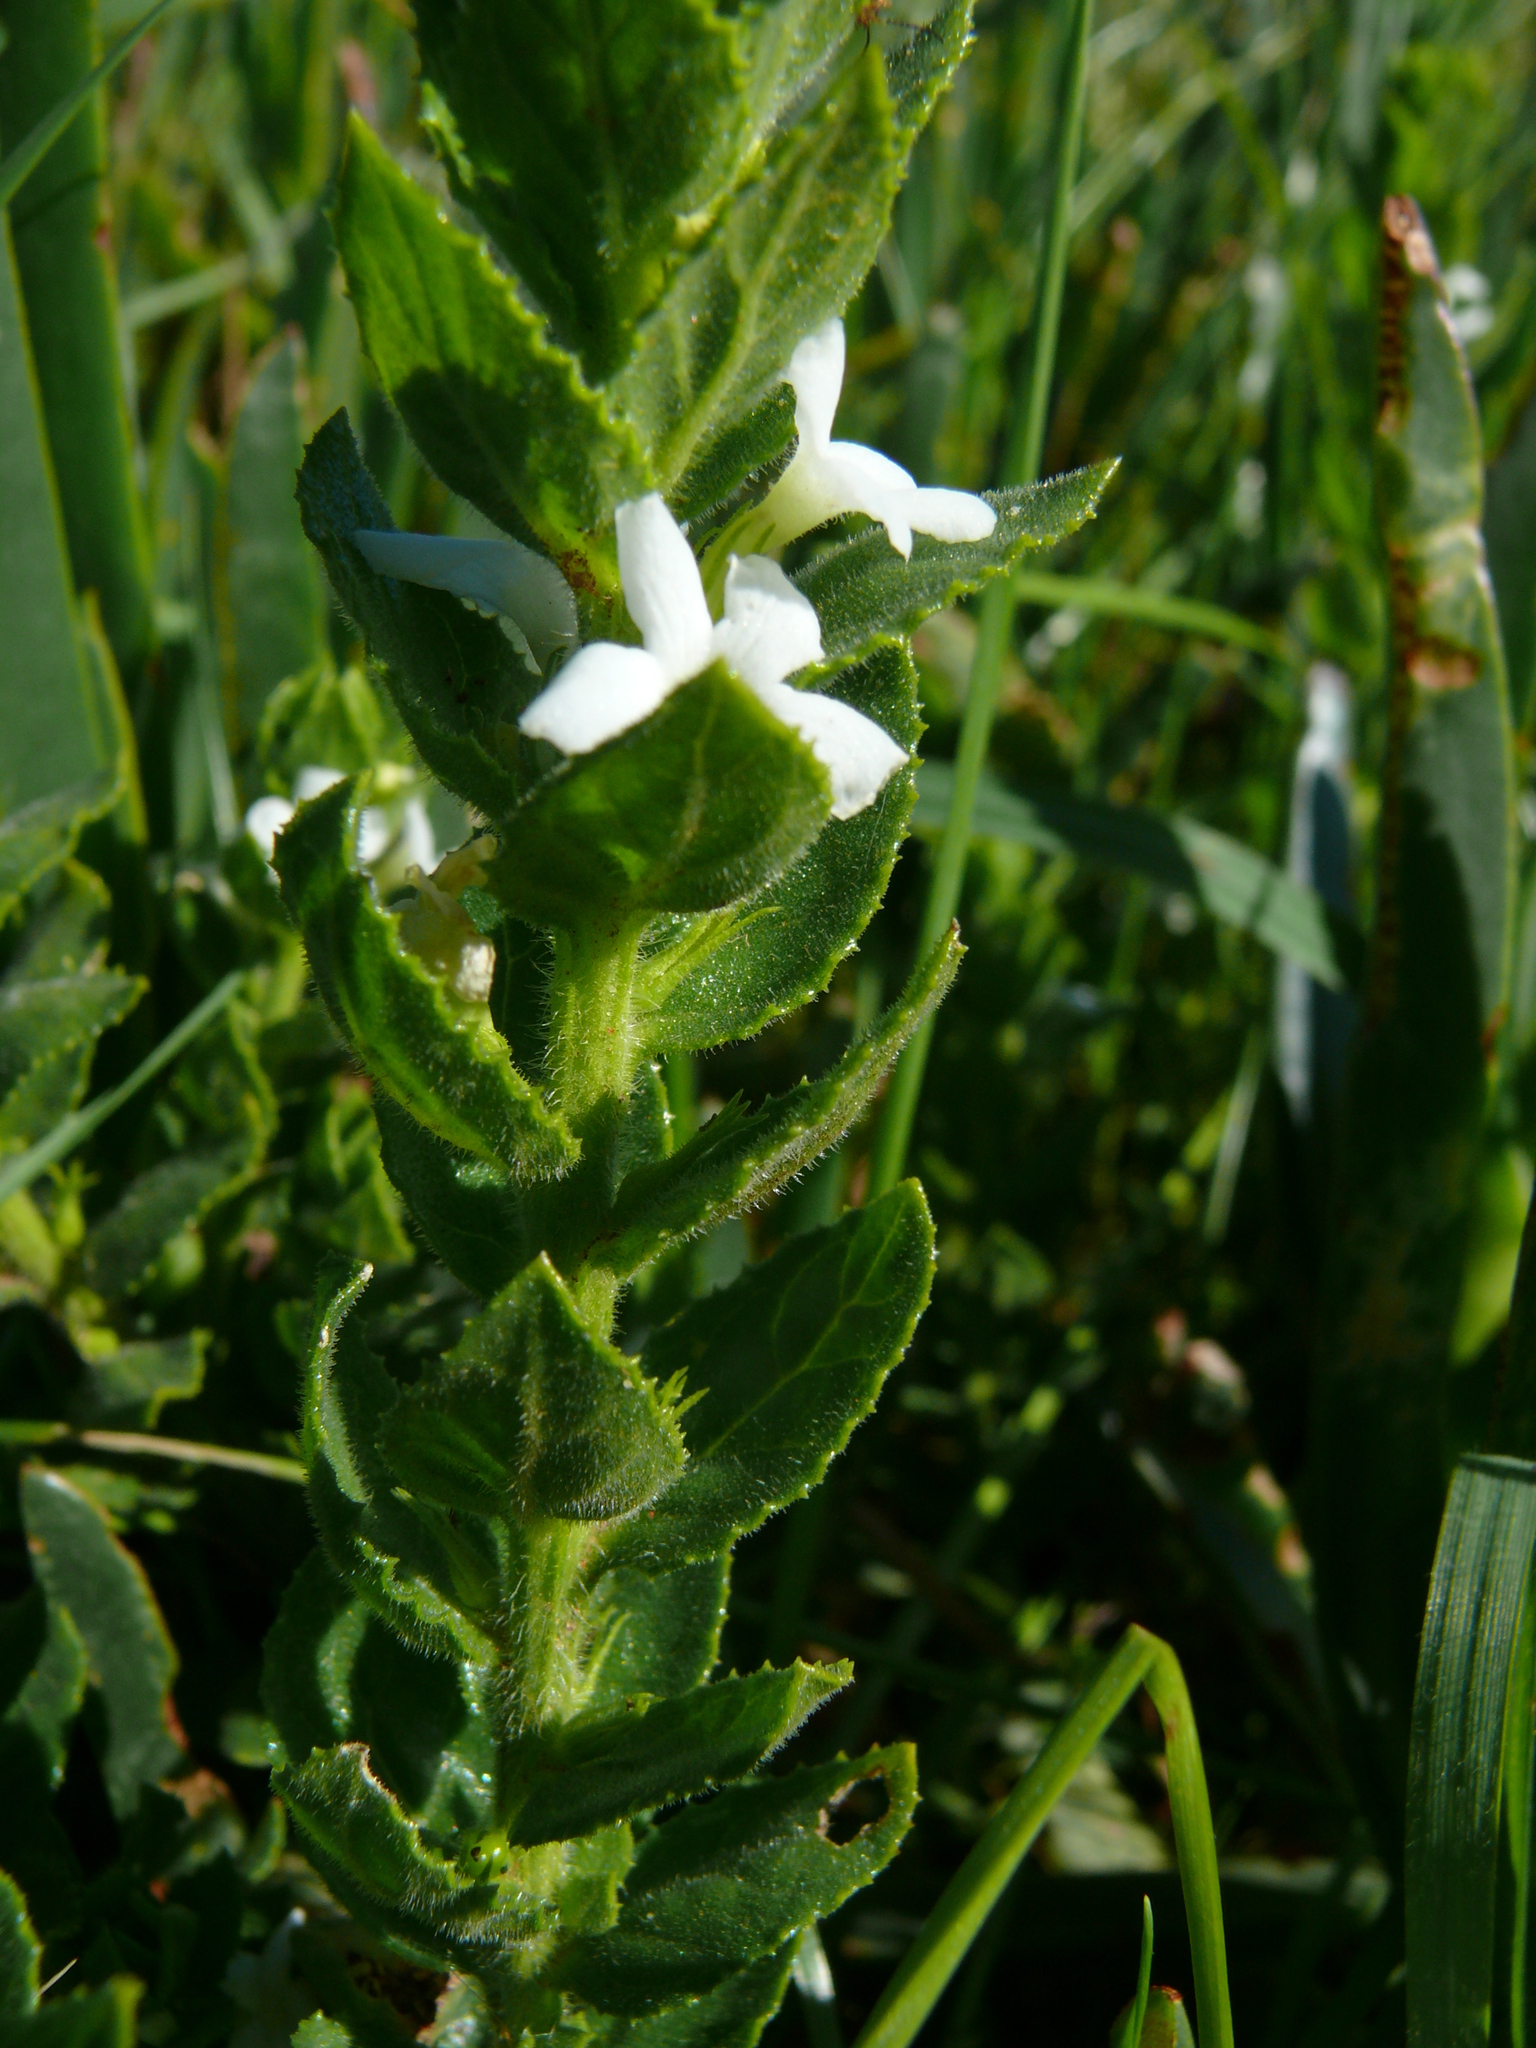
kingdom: Plantae
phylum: Tracheophyta
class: Magnoliopsida
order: Lamiales
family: Scrophulariaceae
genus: Oftia
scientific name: Oftia africana
